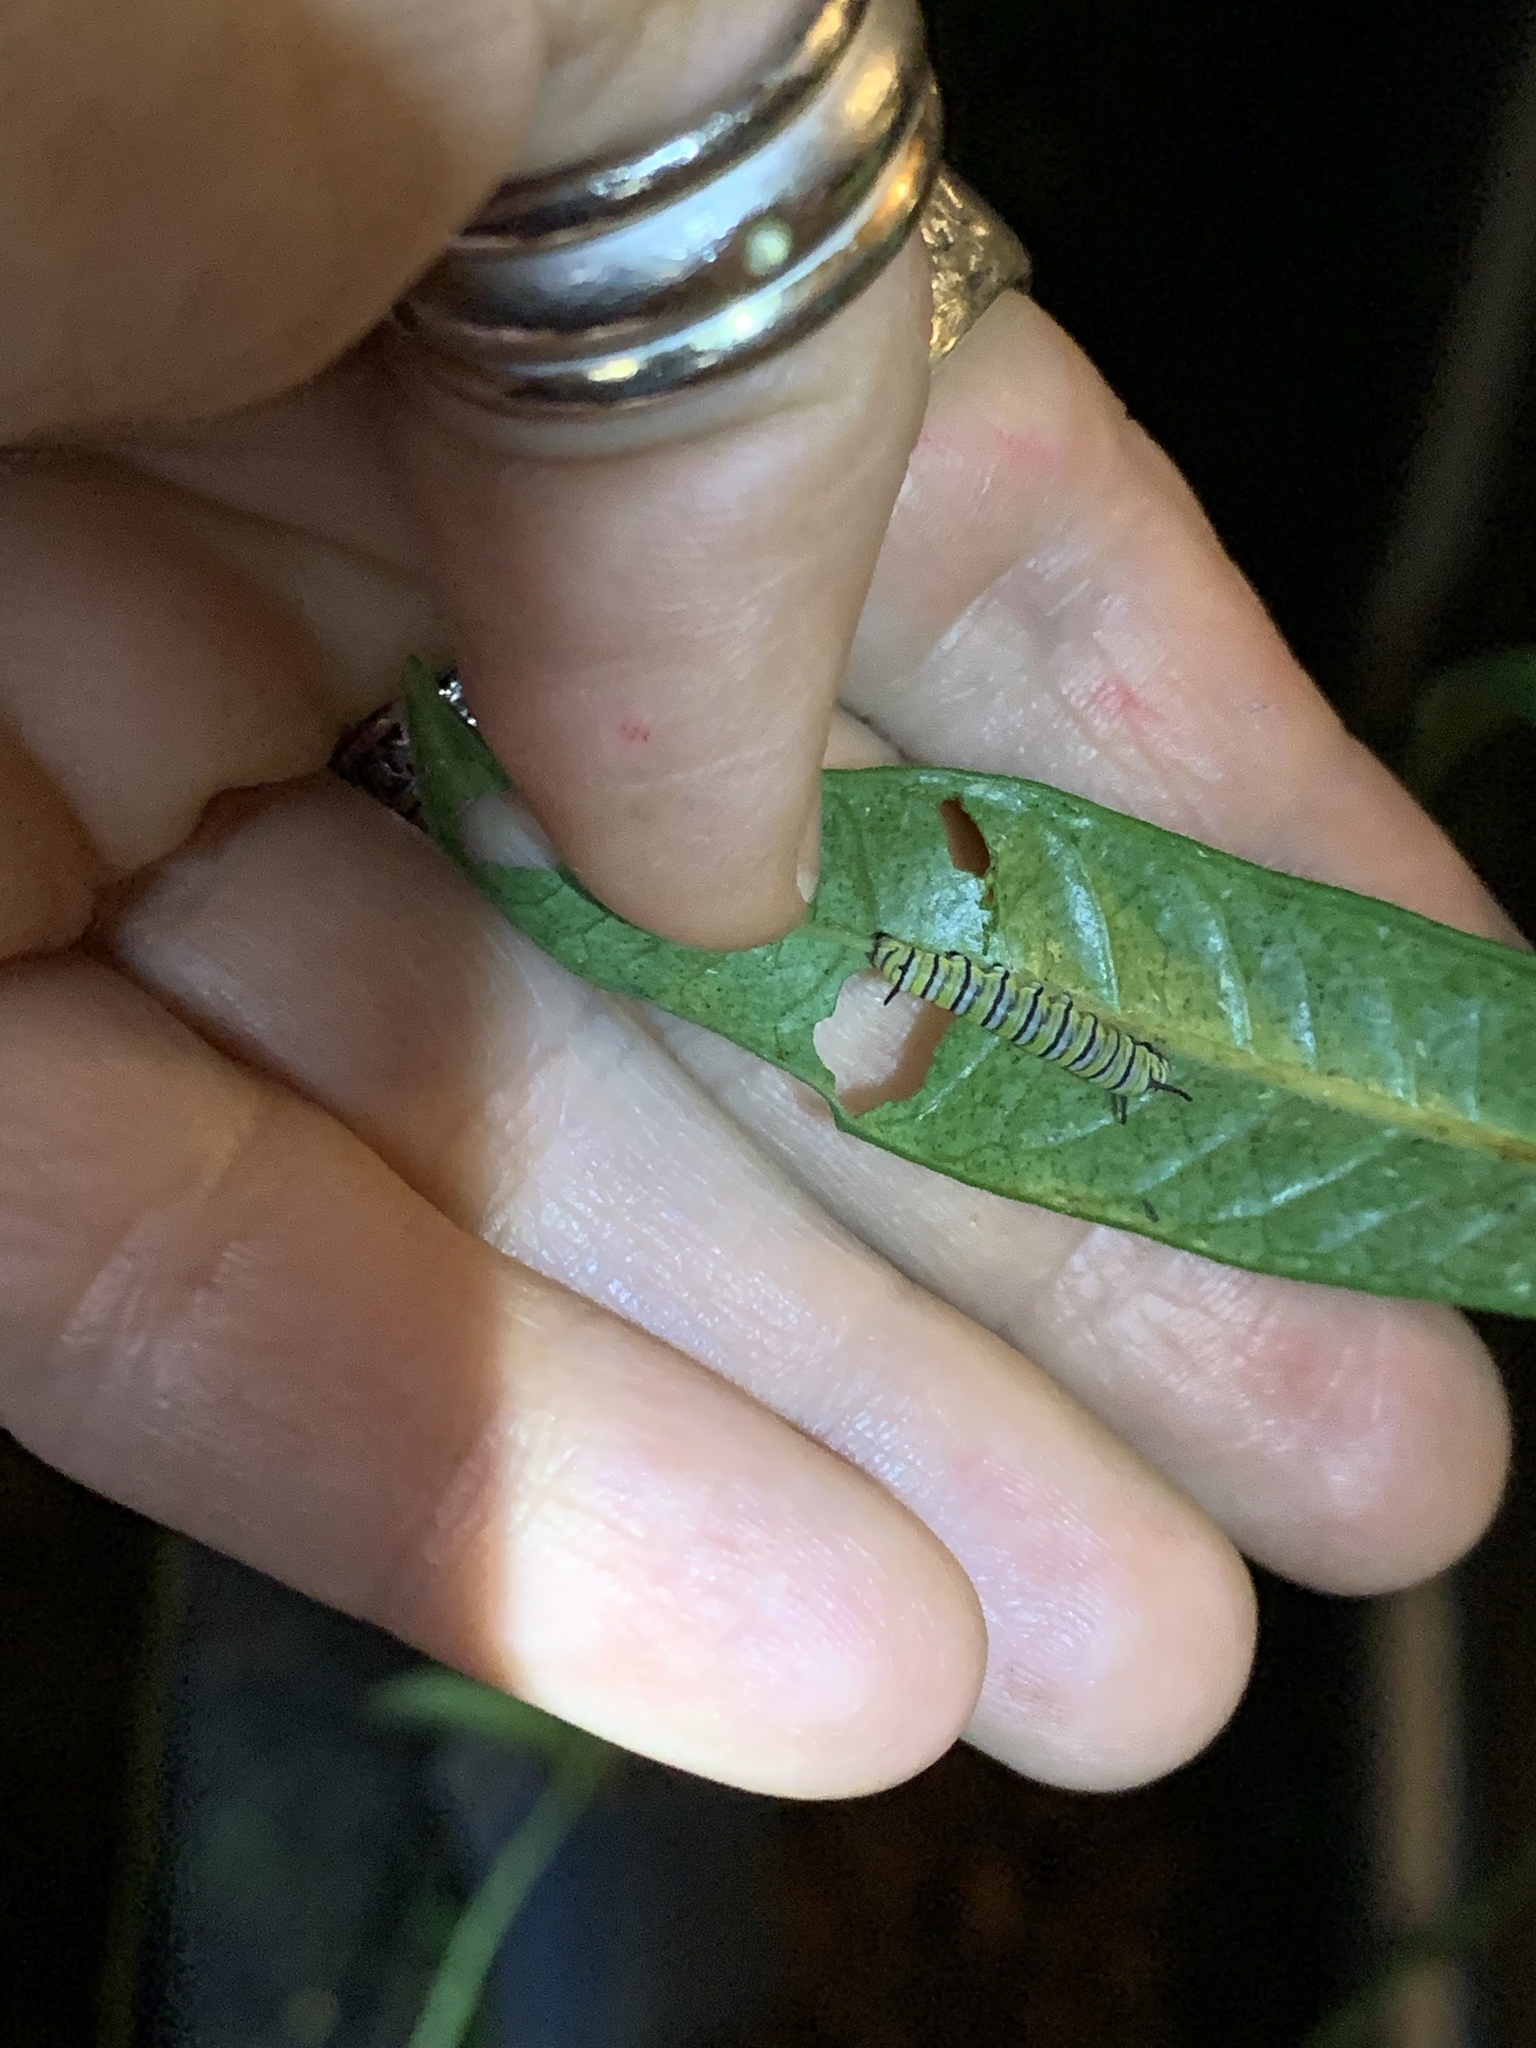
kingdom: Animalia
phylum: Arthropoda
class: Insecta
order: Lepidoptera
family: Nymphalidae
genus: Danaus
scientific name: Danaus plexippus
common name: Monarch
